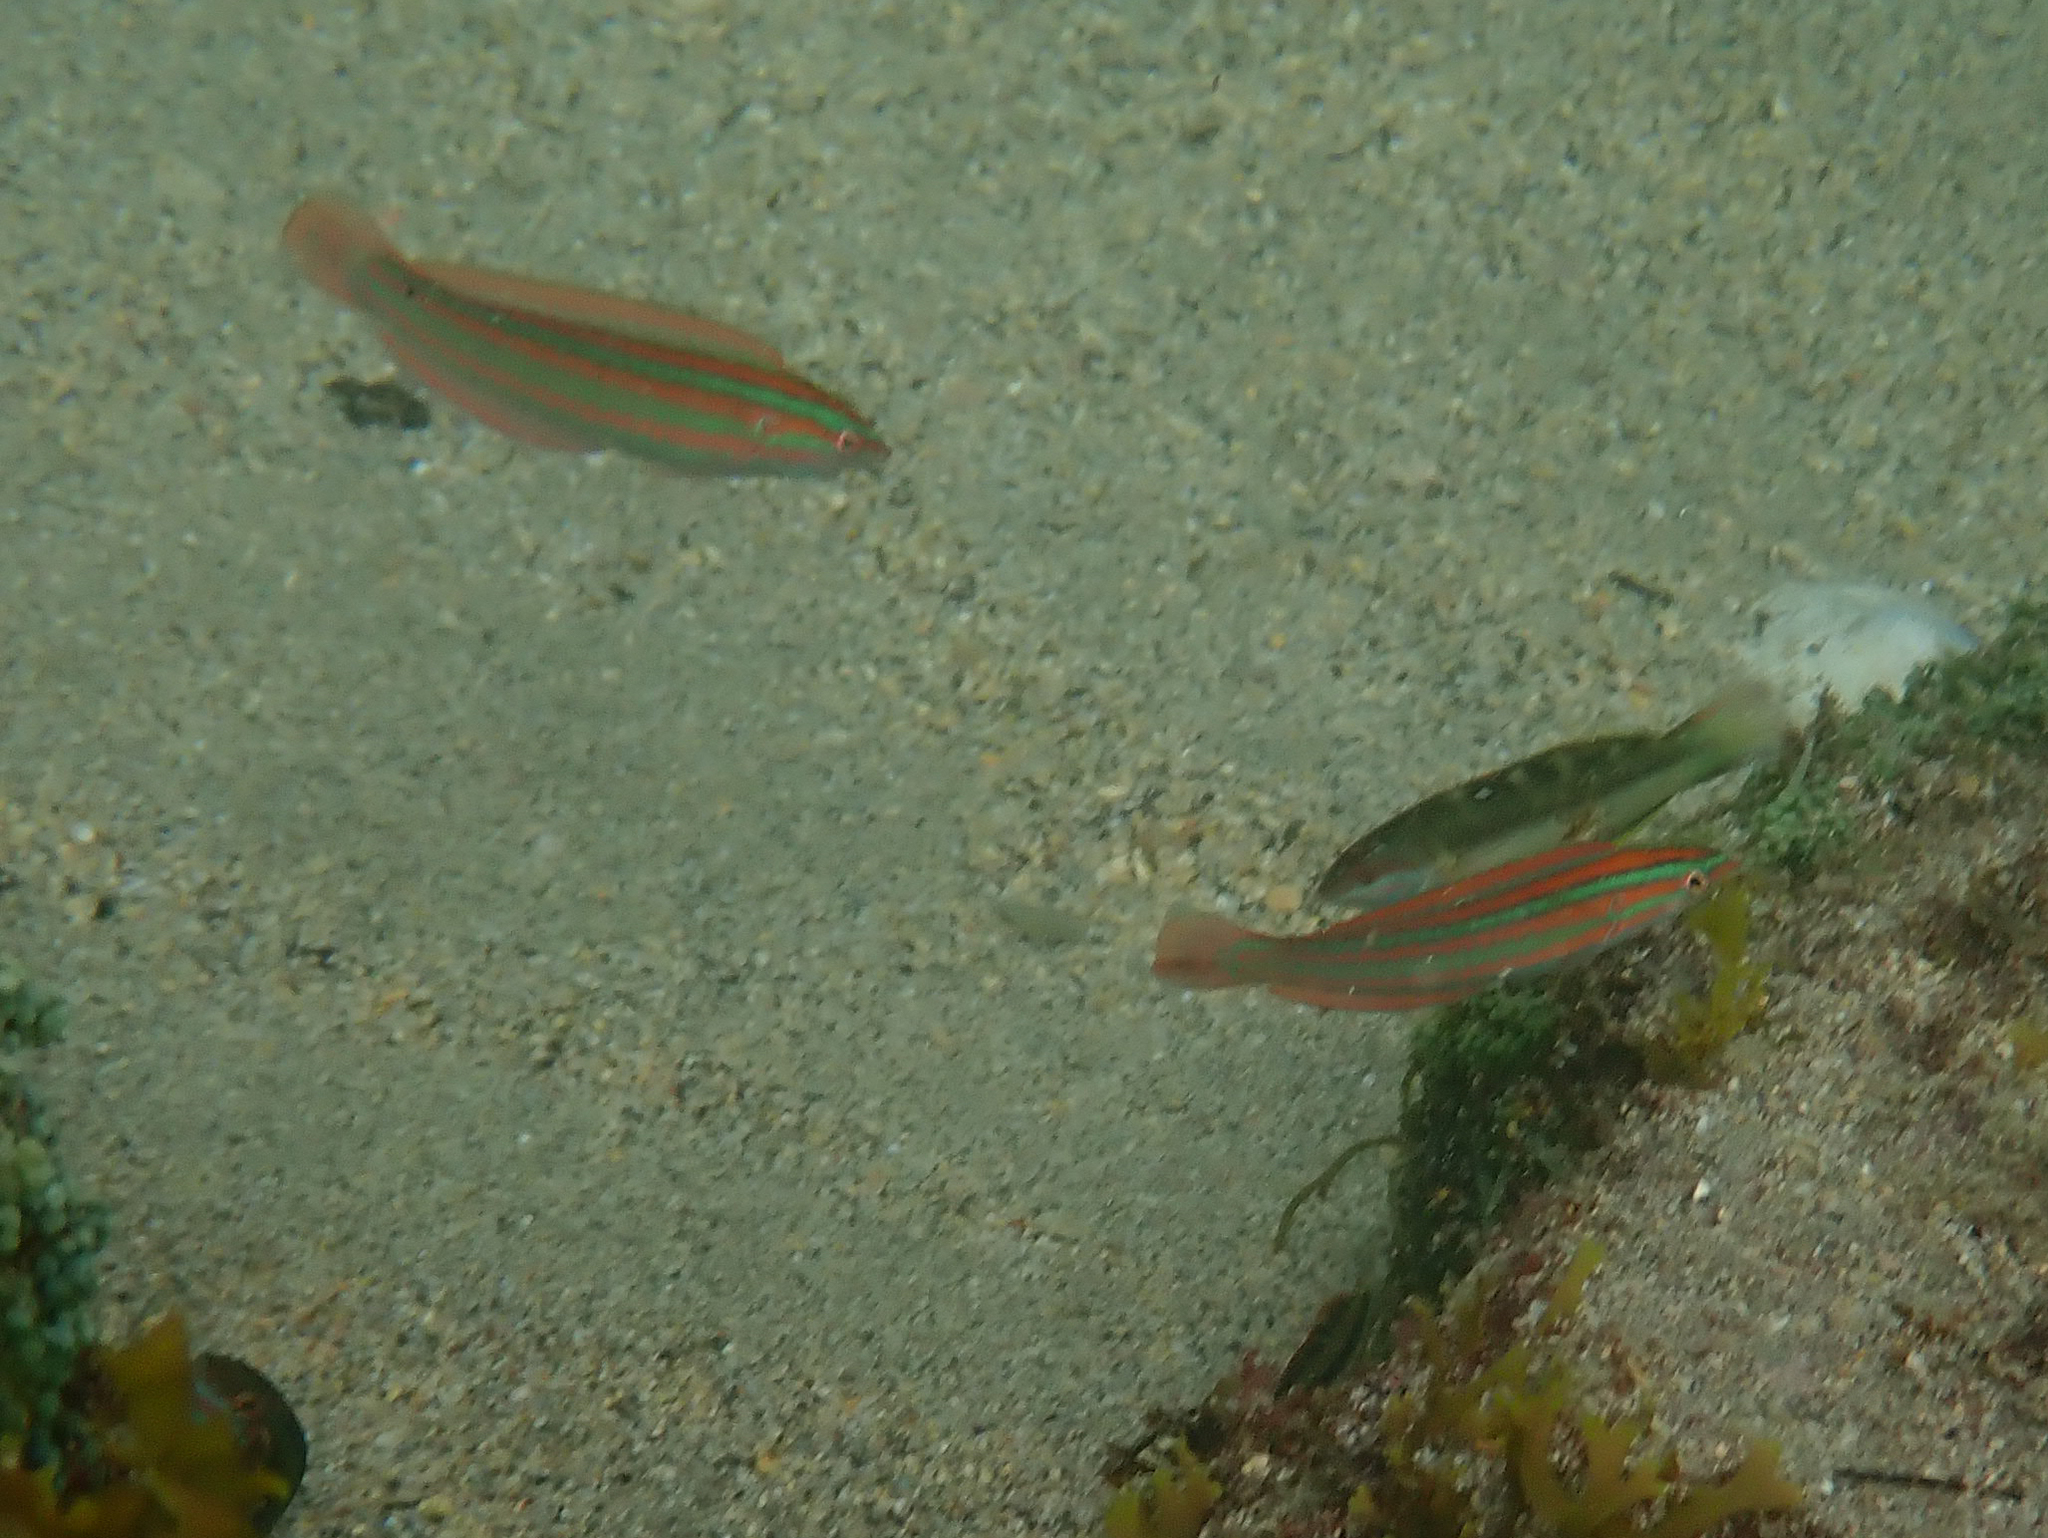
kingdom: Animalia
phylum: Chordata
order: Perciformes
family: Labridae
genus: Coris
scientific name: Coris atlantica
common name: Rainbow wrasse
